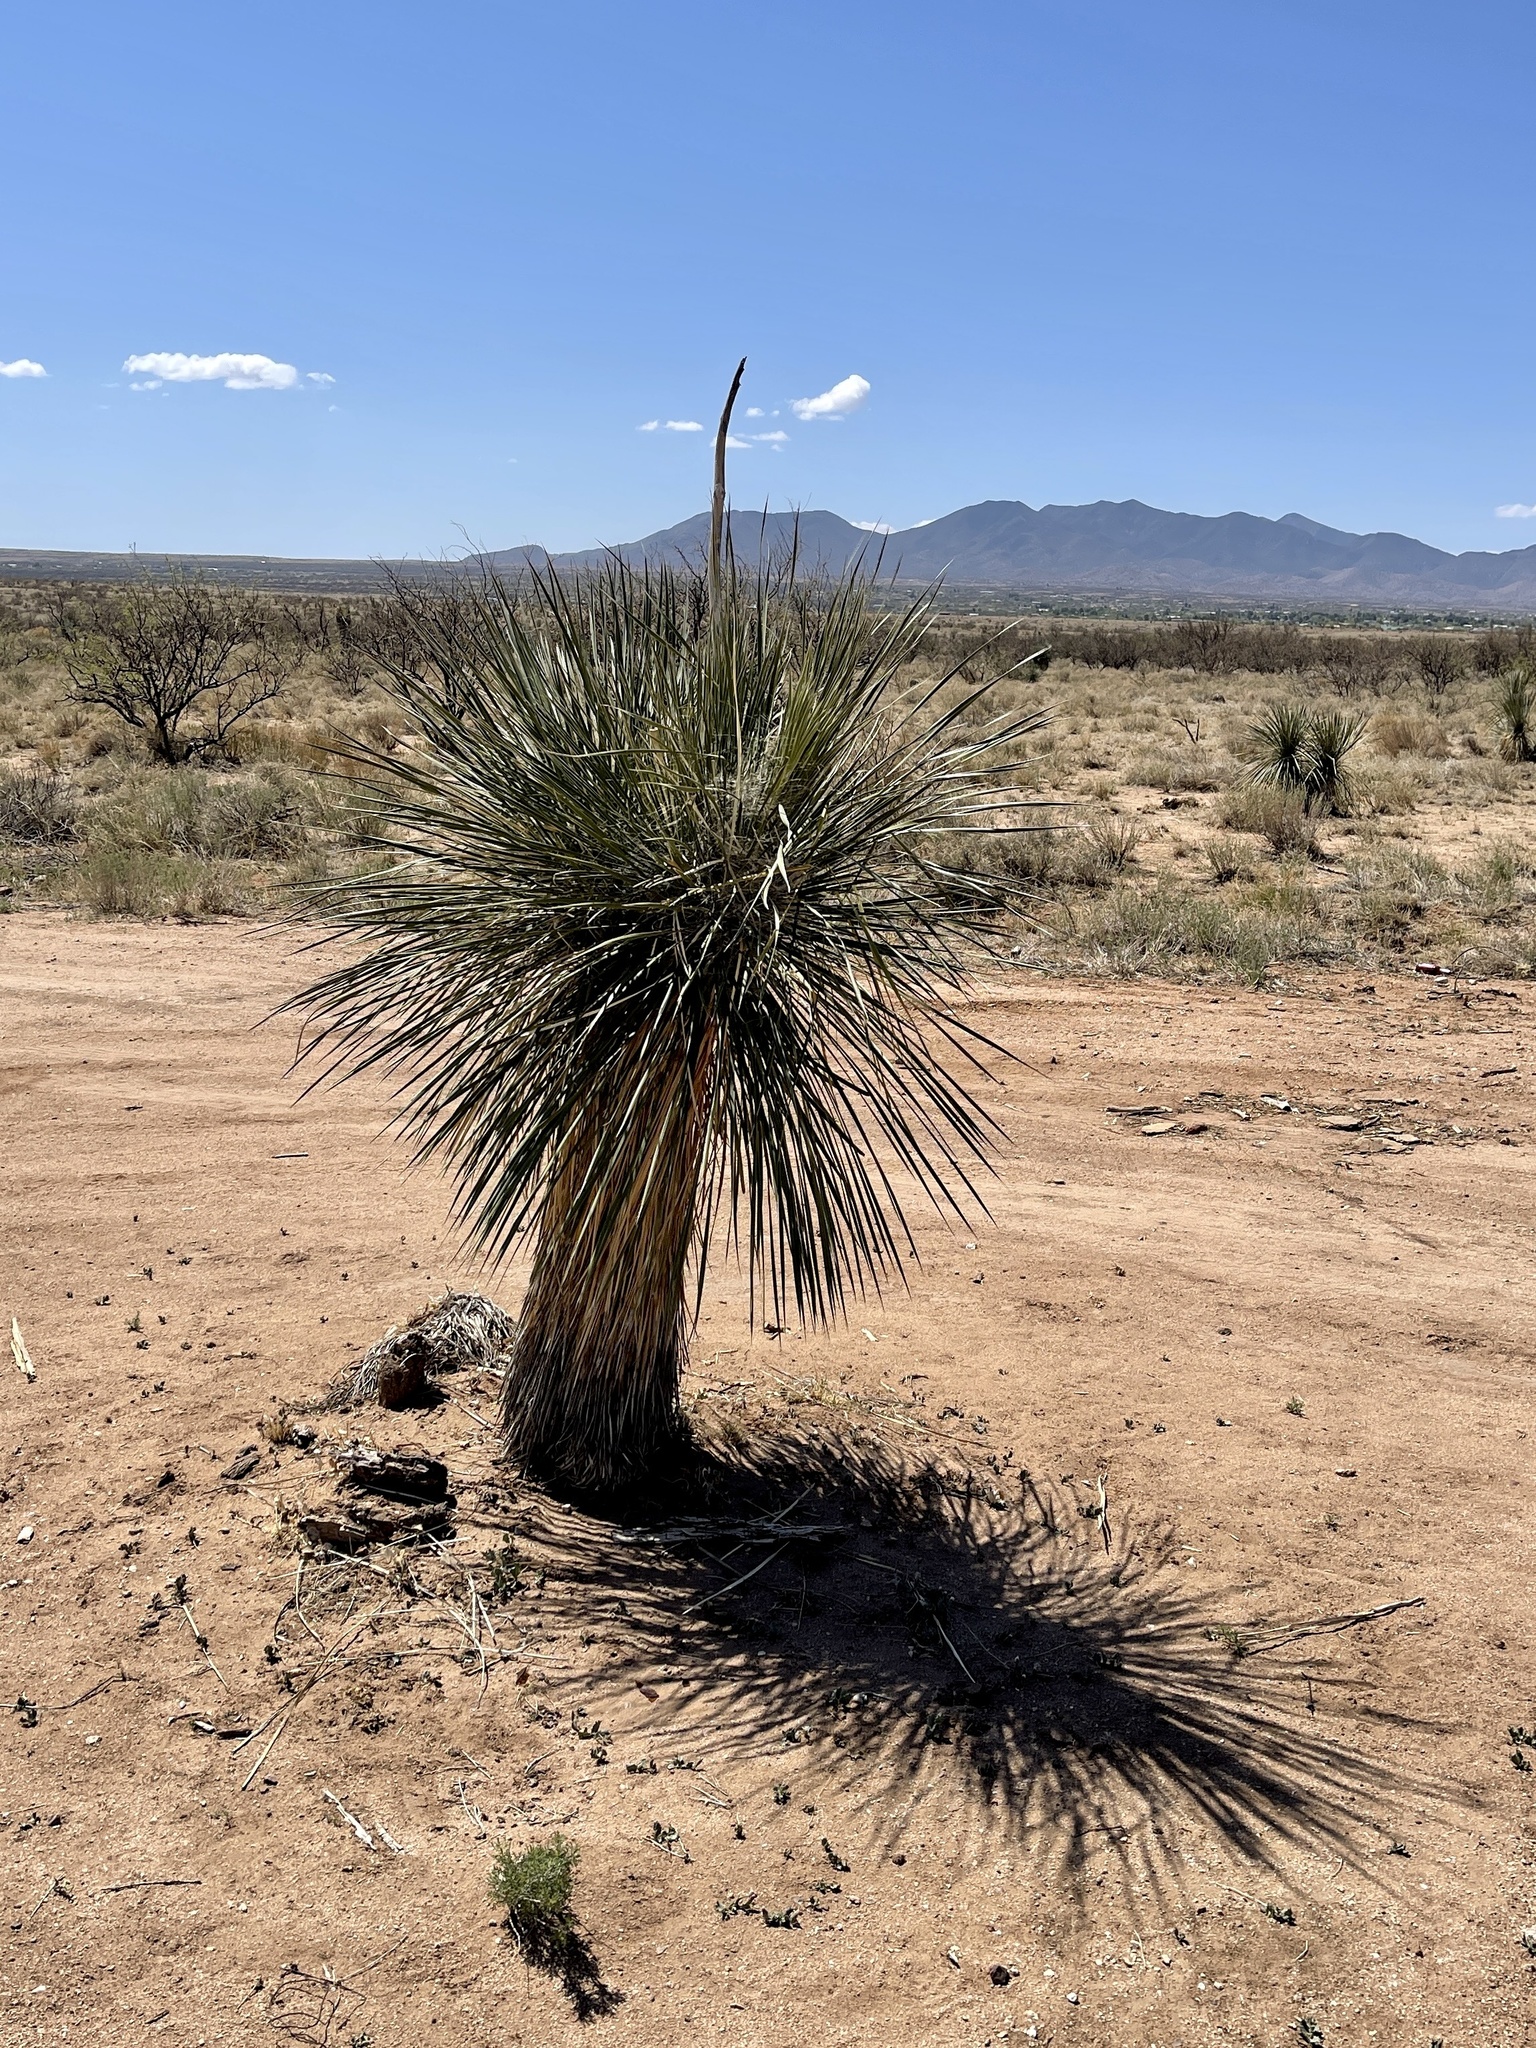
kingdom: Plantae
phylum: Tracheophyta
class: Liliopsida
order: Asparagales
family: Asparagaceae
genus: Yucca
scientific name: Yucca elata
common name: Palmella
